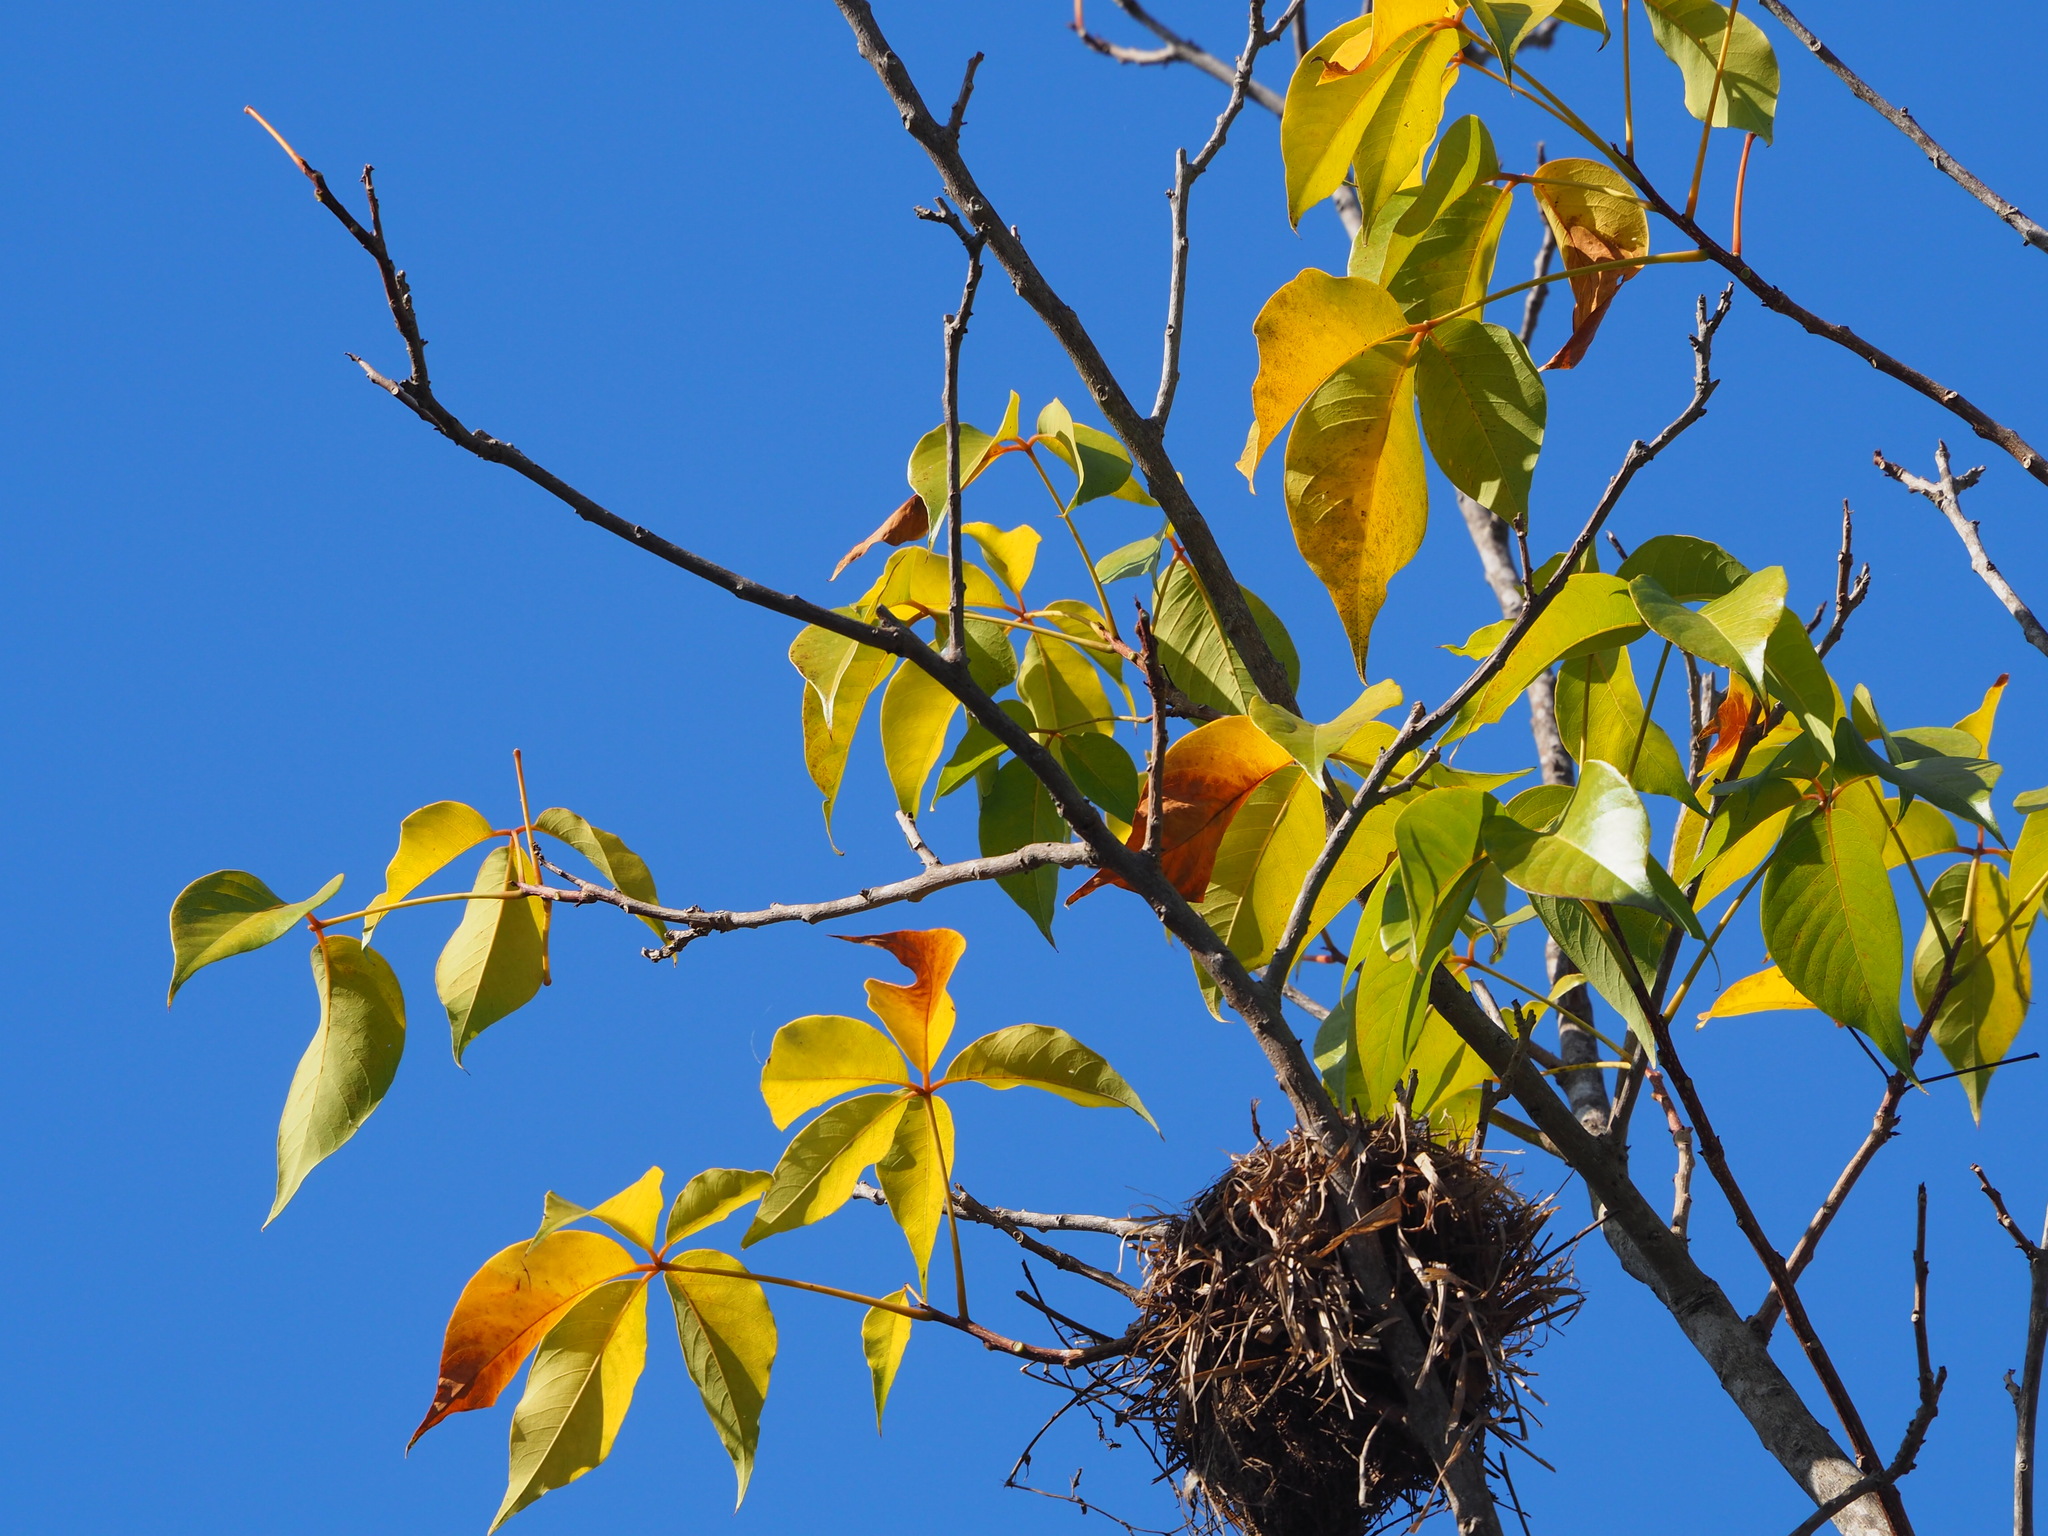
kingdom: Plantae
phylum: Tracheophyta
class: Magnoliopsida
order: Brassicales
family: Capparaceae
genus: Crateva
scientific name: Crateva formosensis
